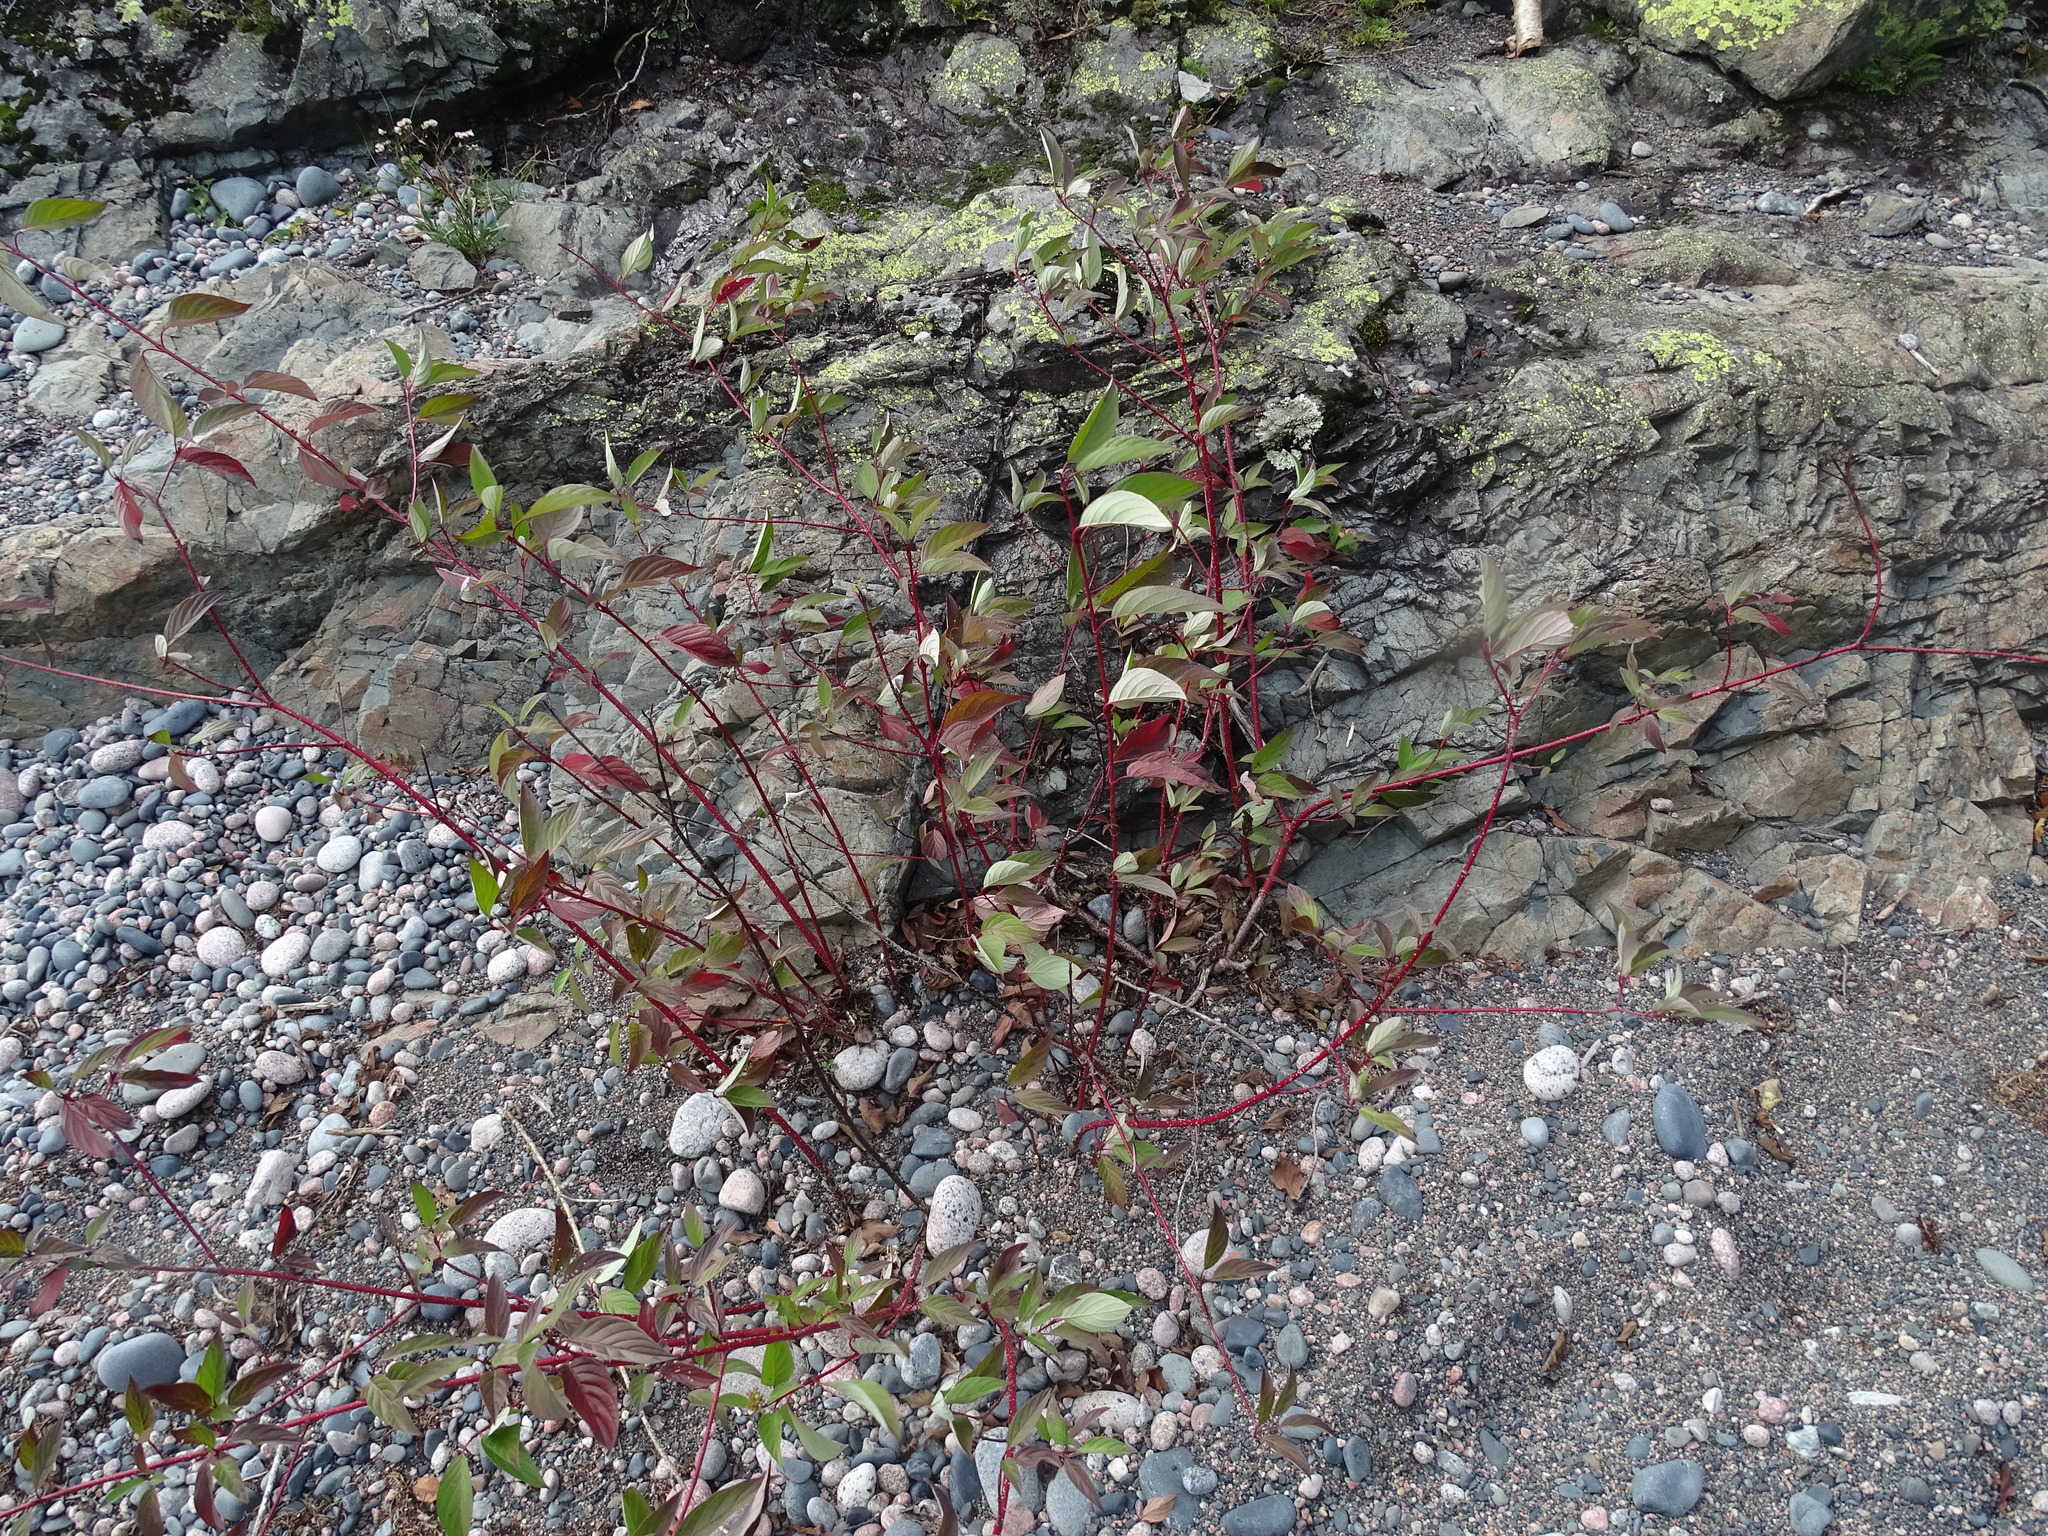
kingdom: Plantae
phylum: Tracheophyta
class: Magnoliopsida
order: Cornales
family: Cornaceae
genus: Cornus
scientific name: Cornus sericea
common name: Red-osier dogwood
